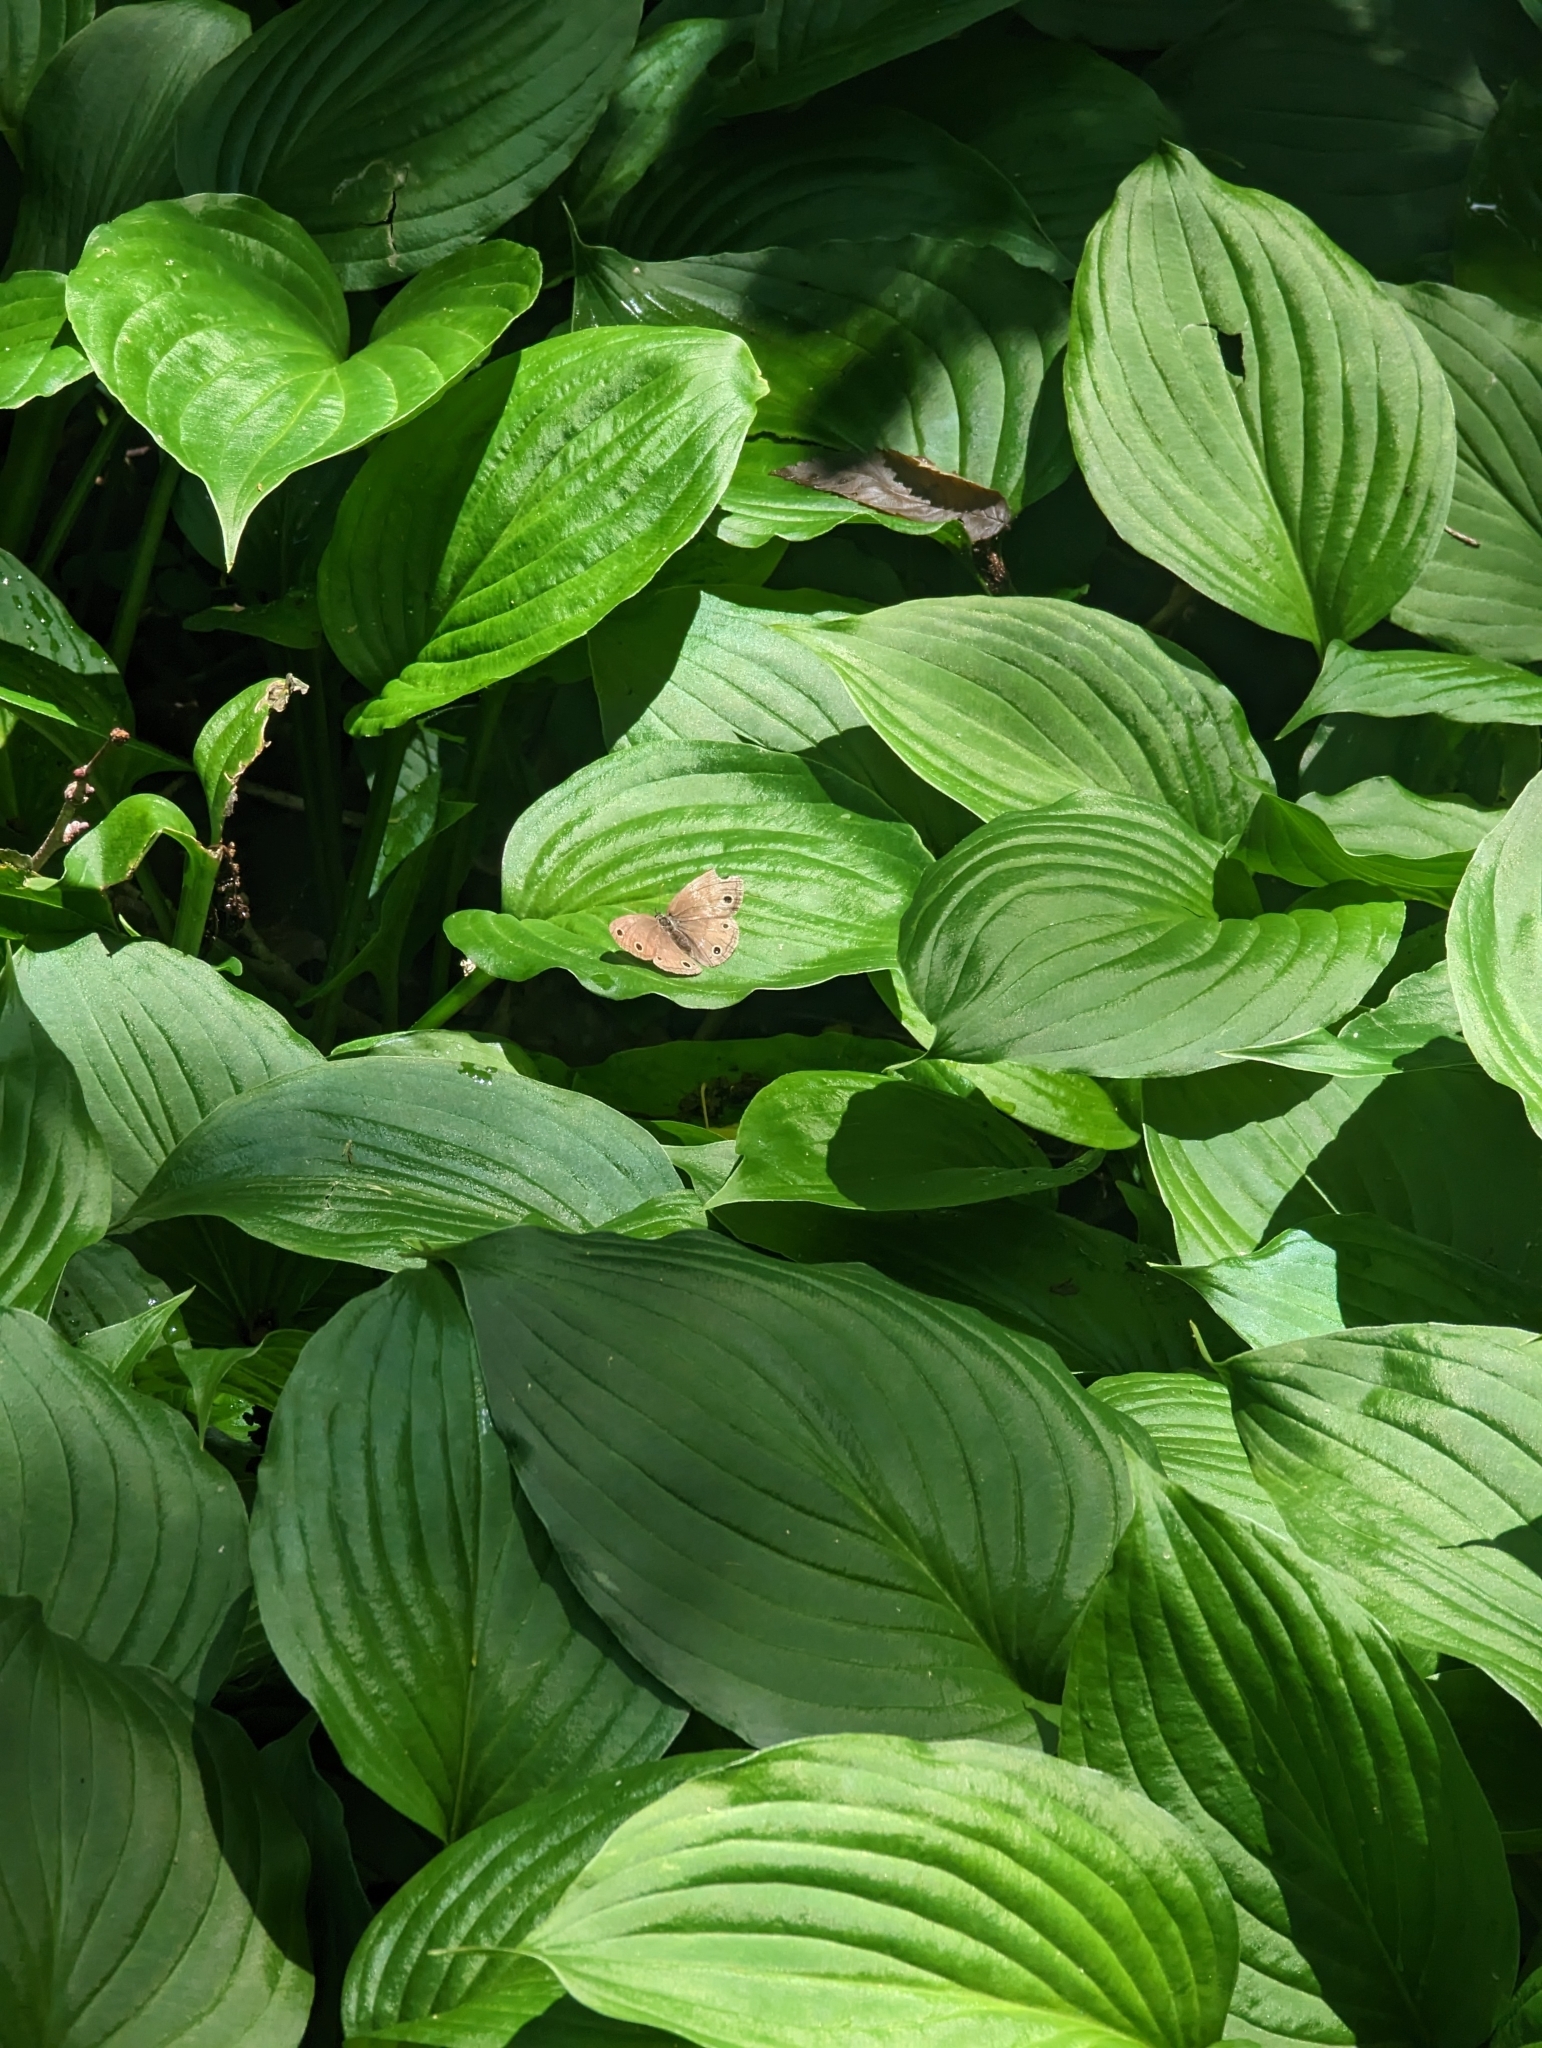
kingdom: Animalia
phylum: Arthropoda
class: Insecta
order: Lepidoptera
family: Nymphalidae
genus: Euptychia
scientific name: Euptychia cymela
